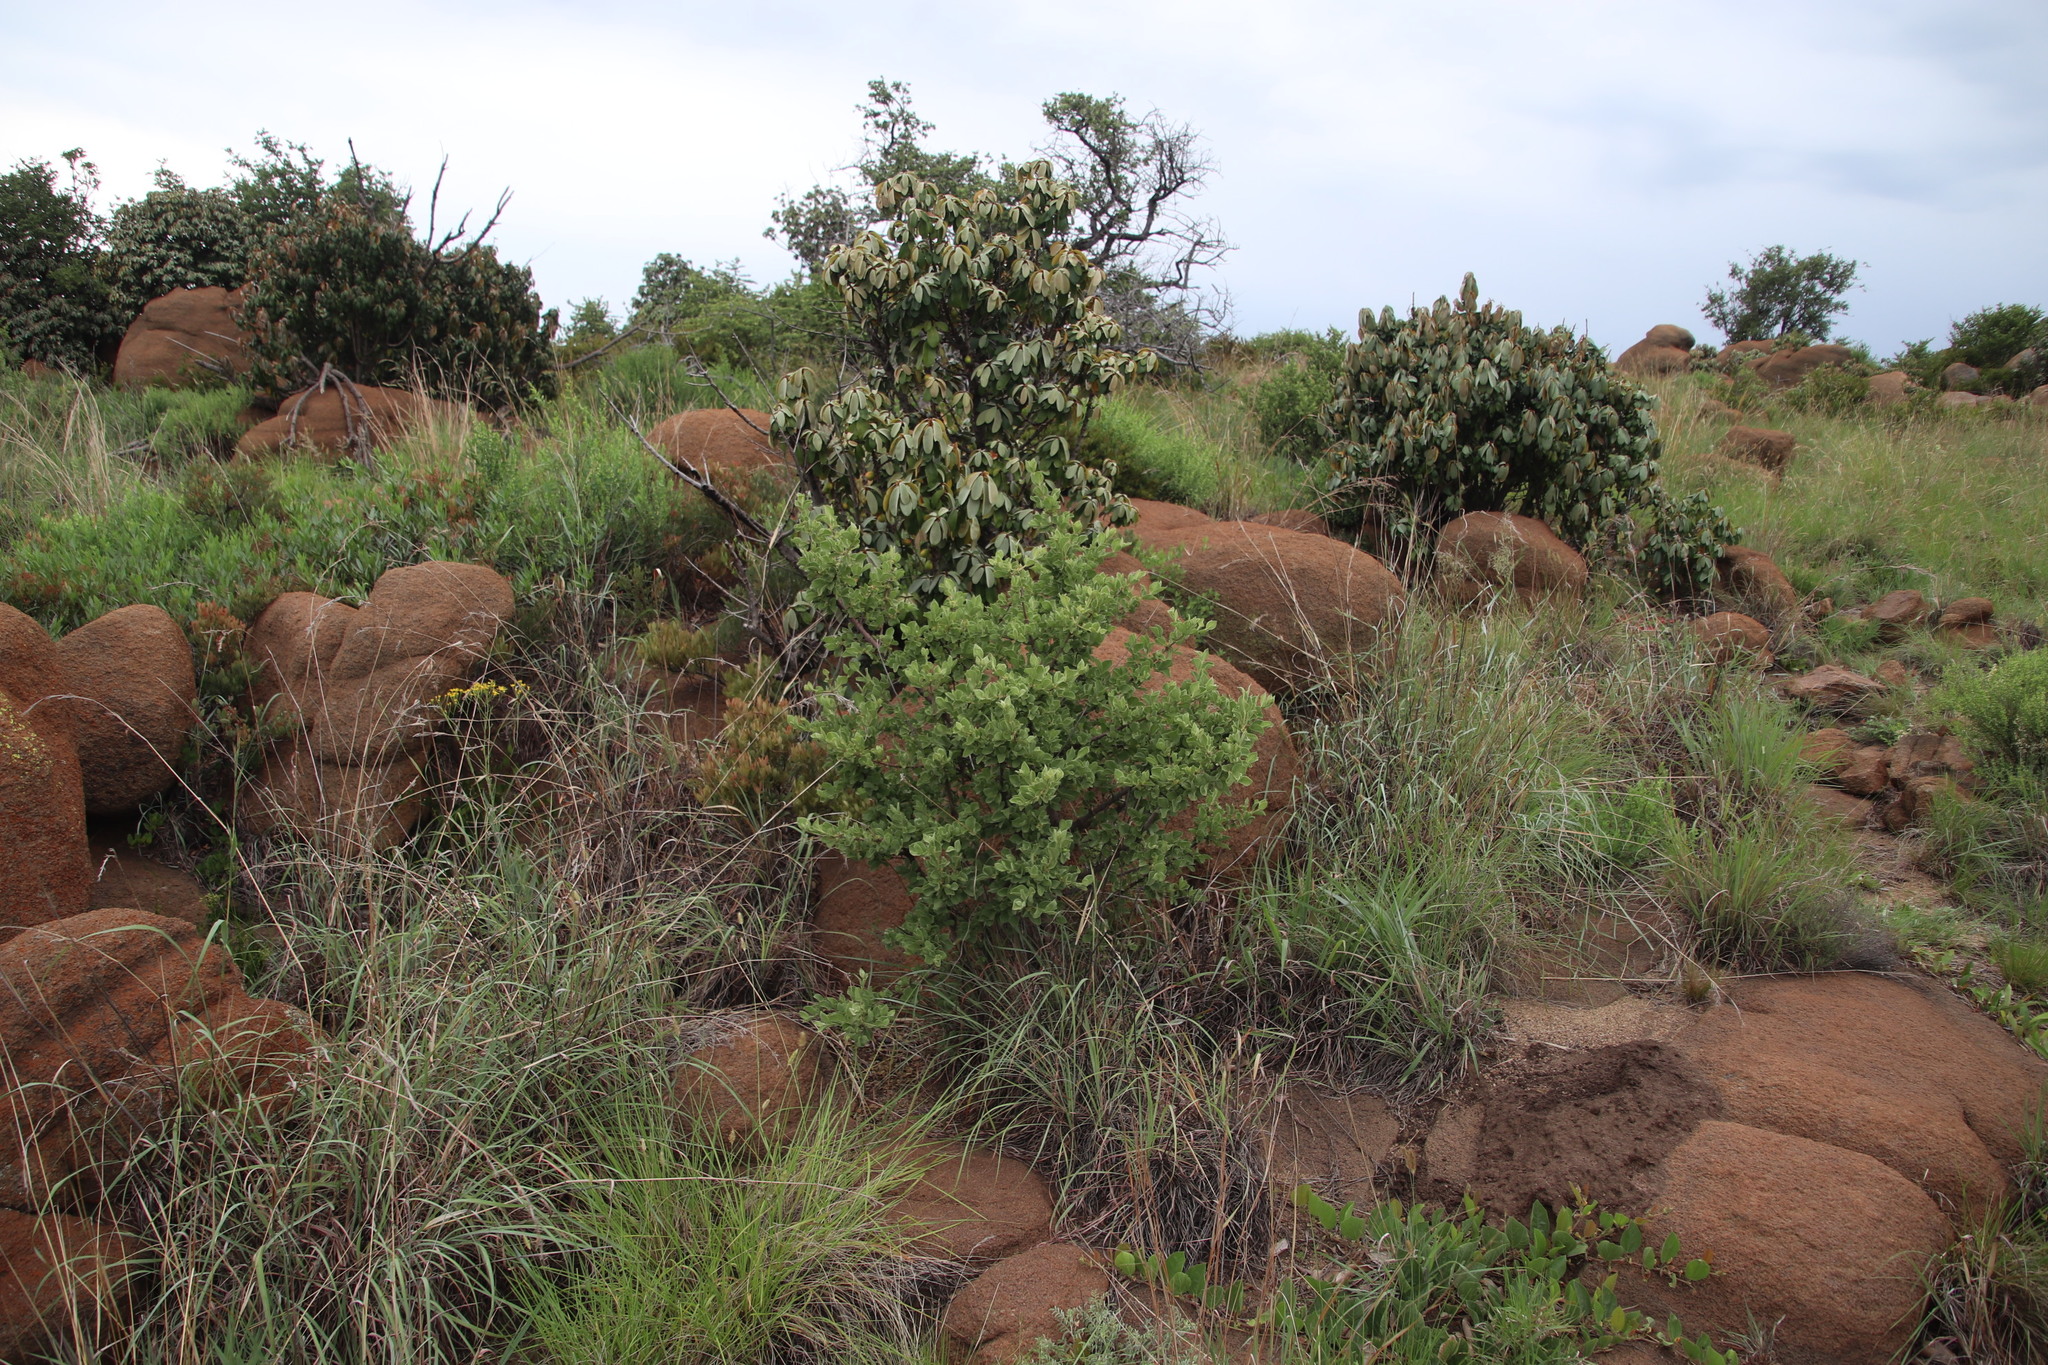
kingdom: Plantae
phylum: Tracheophyta
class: Magnoliopsida
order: Ericales
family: Sapotaceae
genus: Englerophytum
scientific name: Englerophytum magalismontanum
